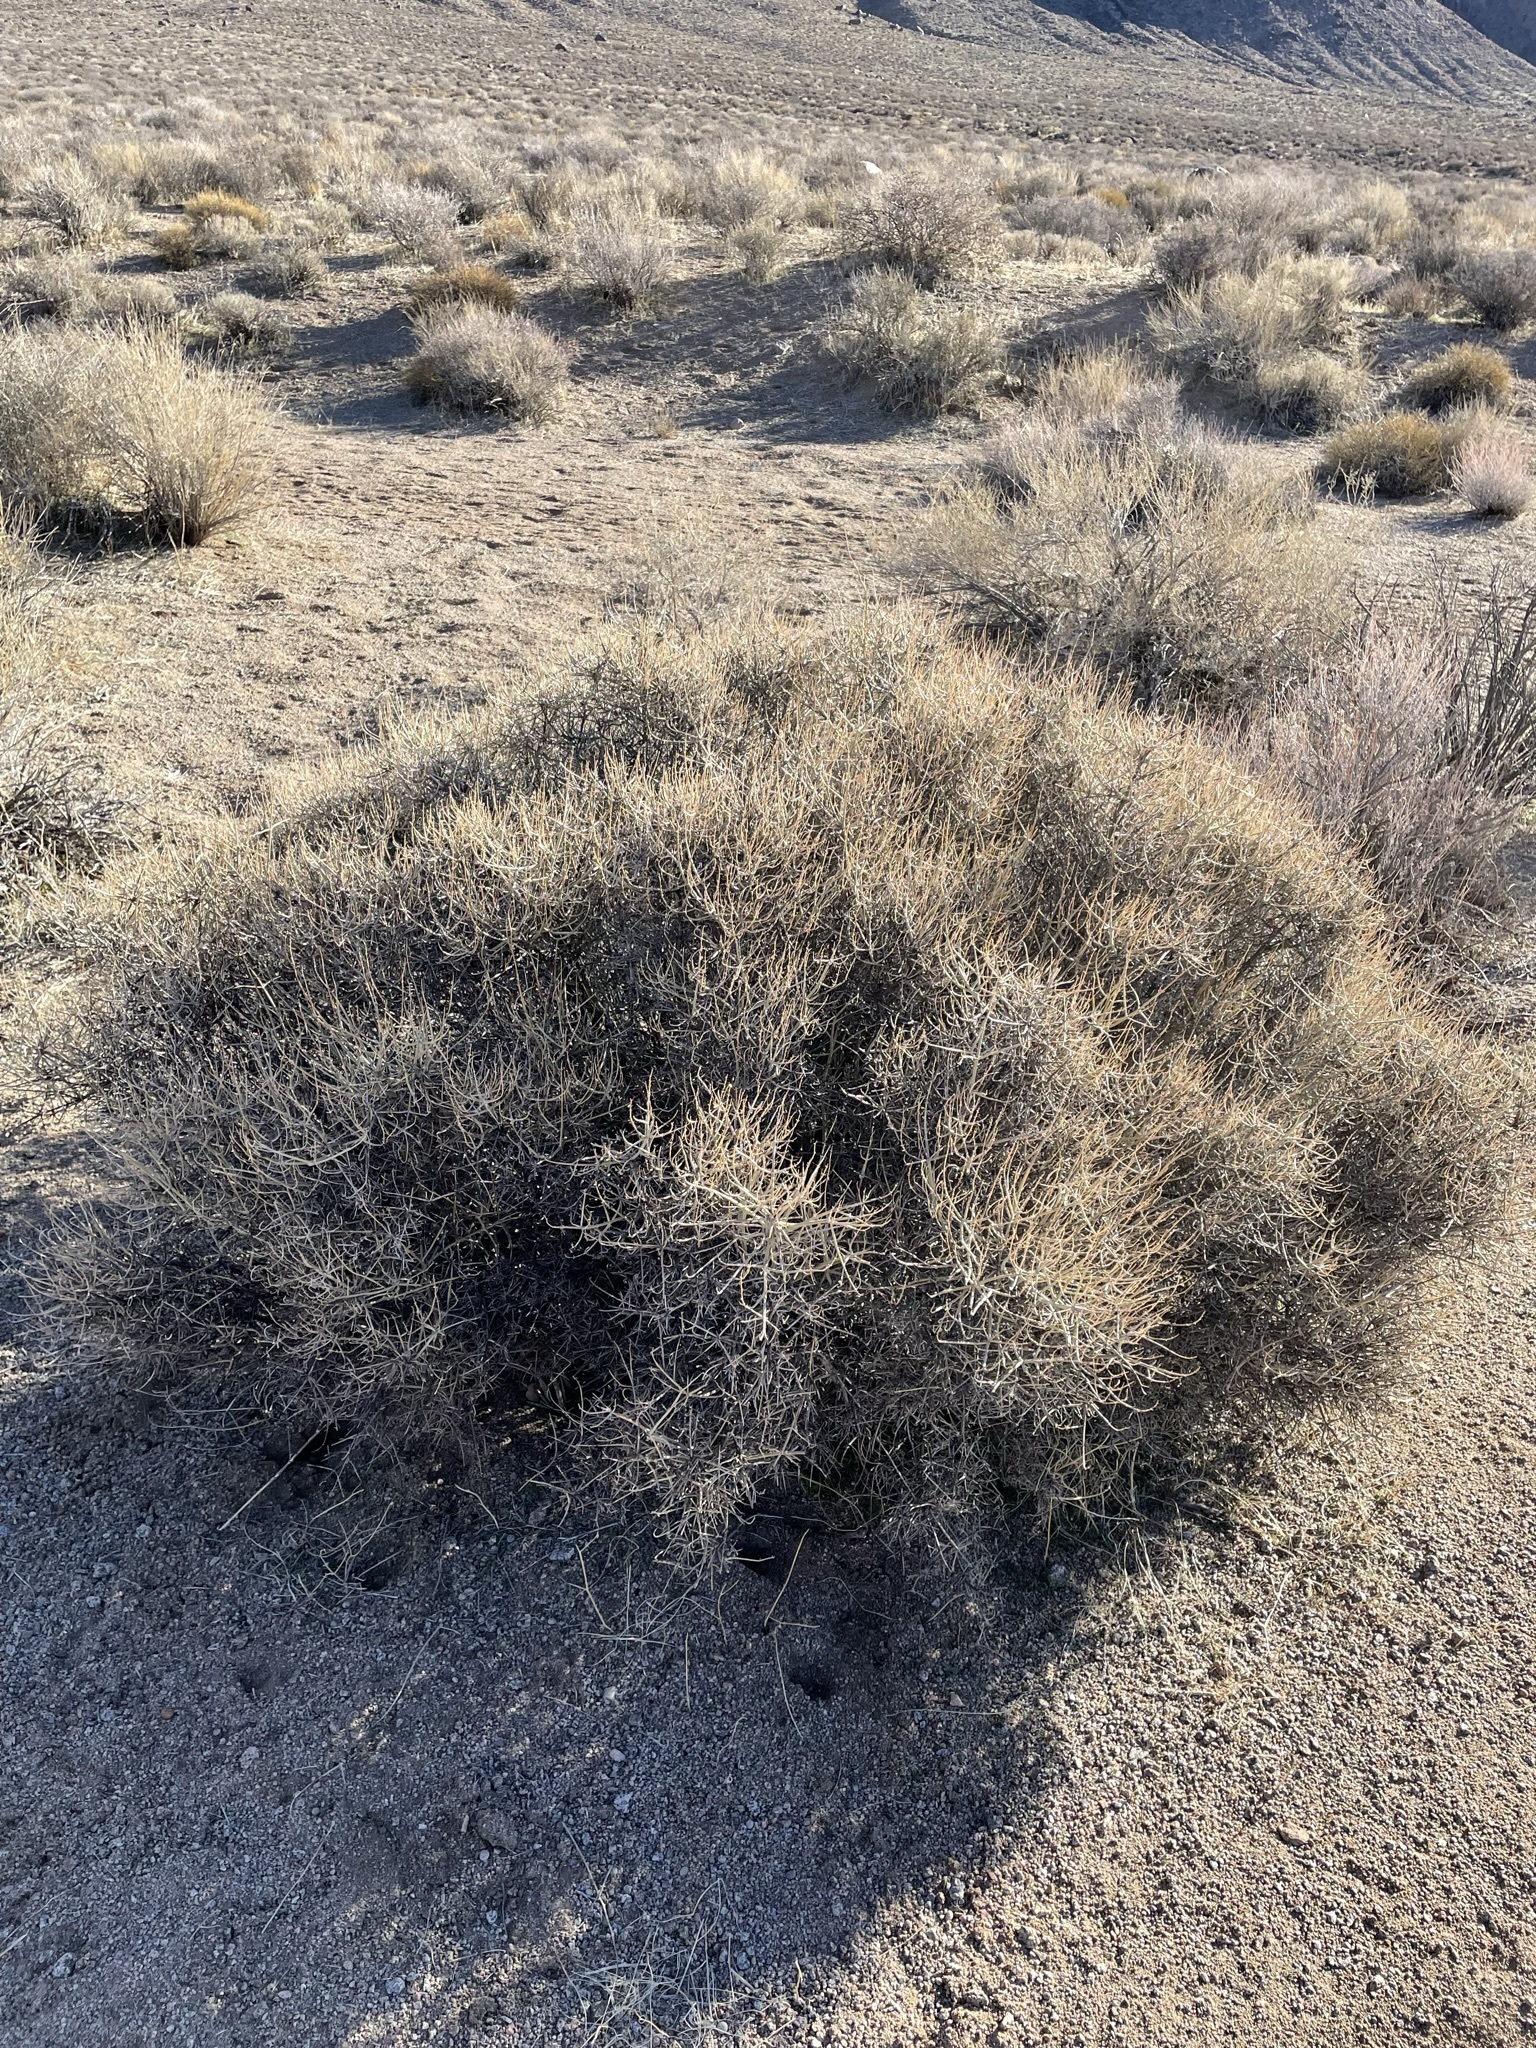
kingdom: Plantae
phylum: Tracheophyta
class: Magnoliopsida
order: Lamiales
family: Lamiaceae
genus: Scutellaria
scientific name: Scutellaria mexicana
